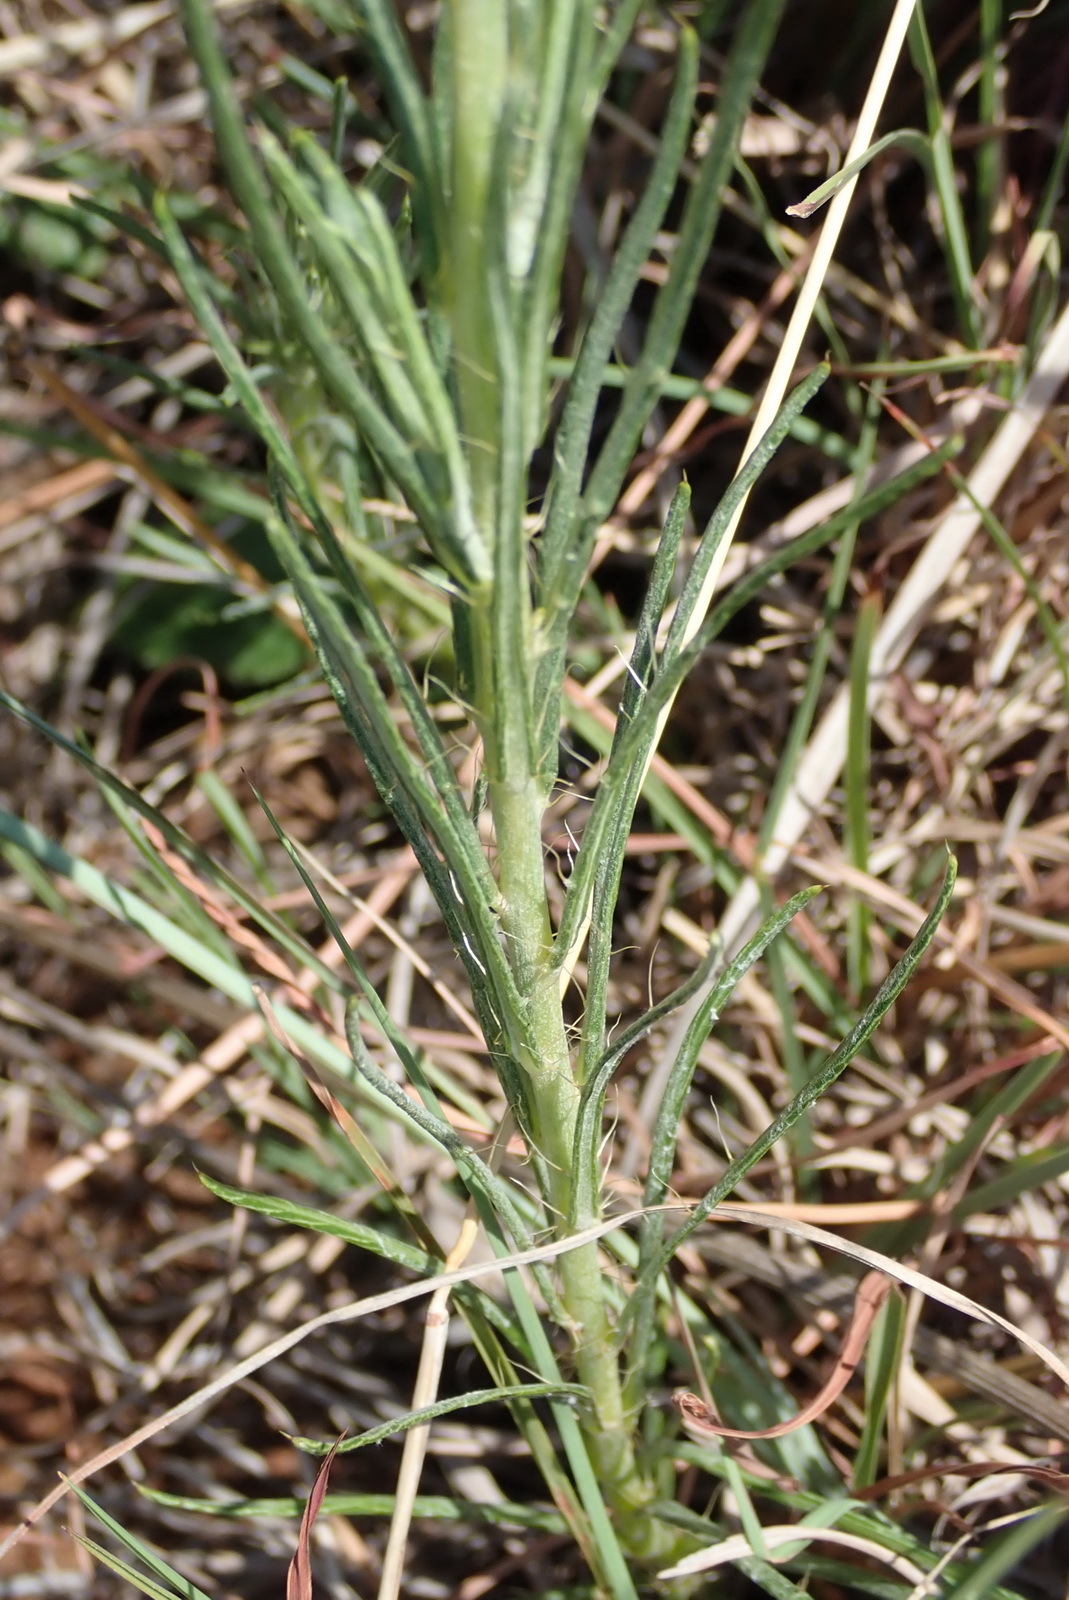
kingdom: Plantae
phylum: Tracheophyta
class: Magnoliopsida
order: Asterales
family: Asteraceae
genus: Berkheya
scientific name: Berkheya insignis
